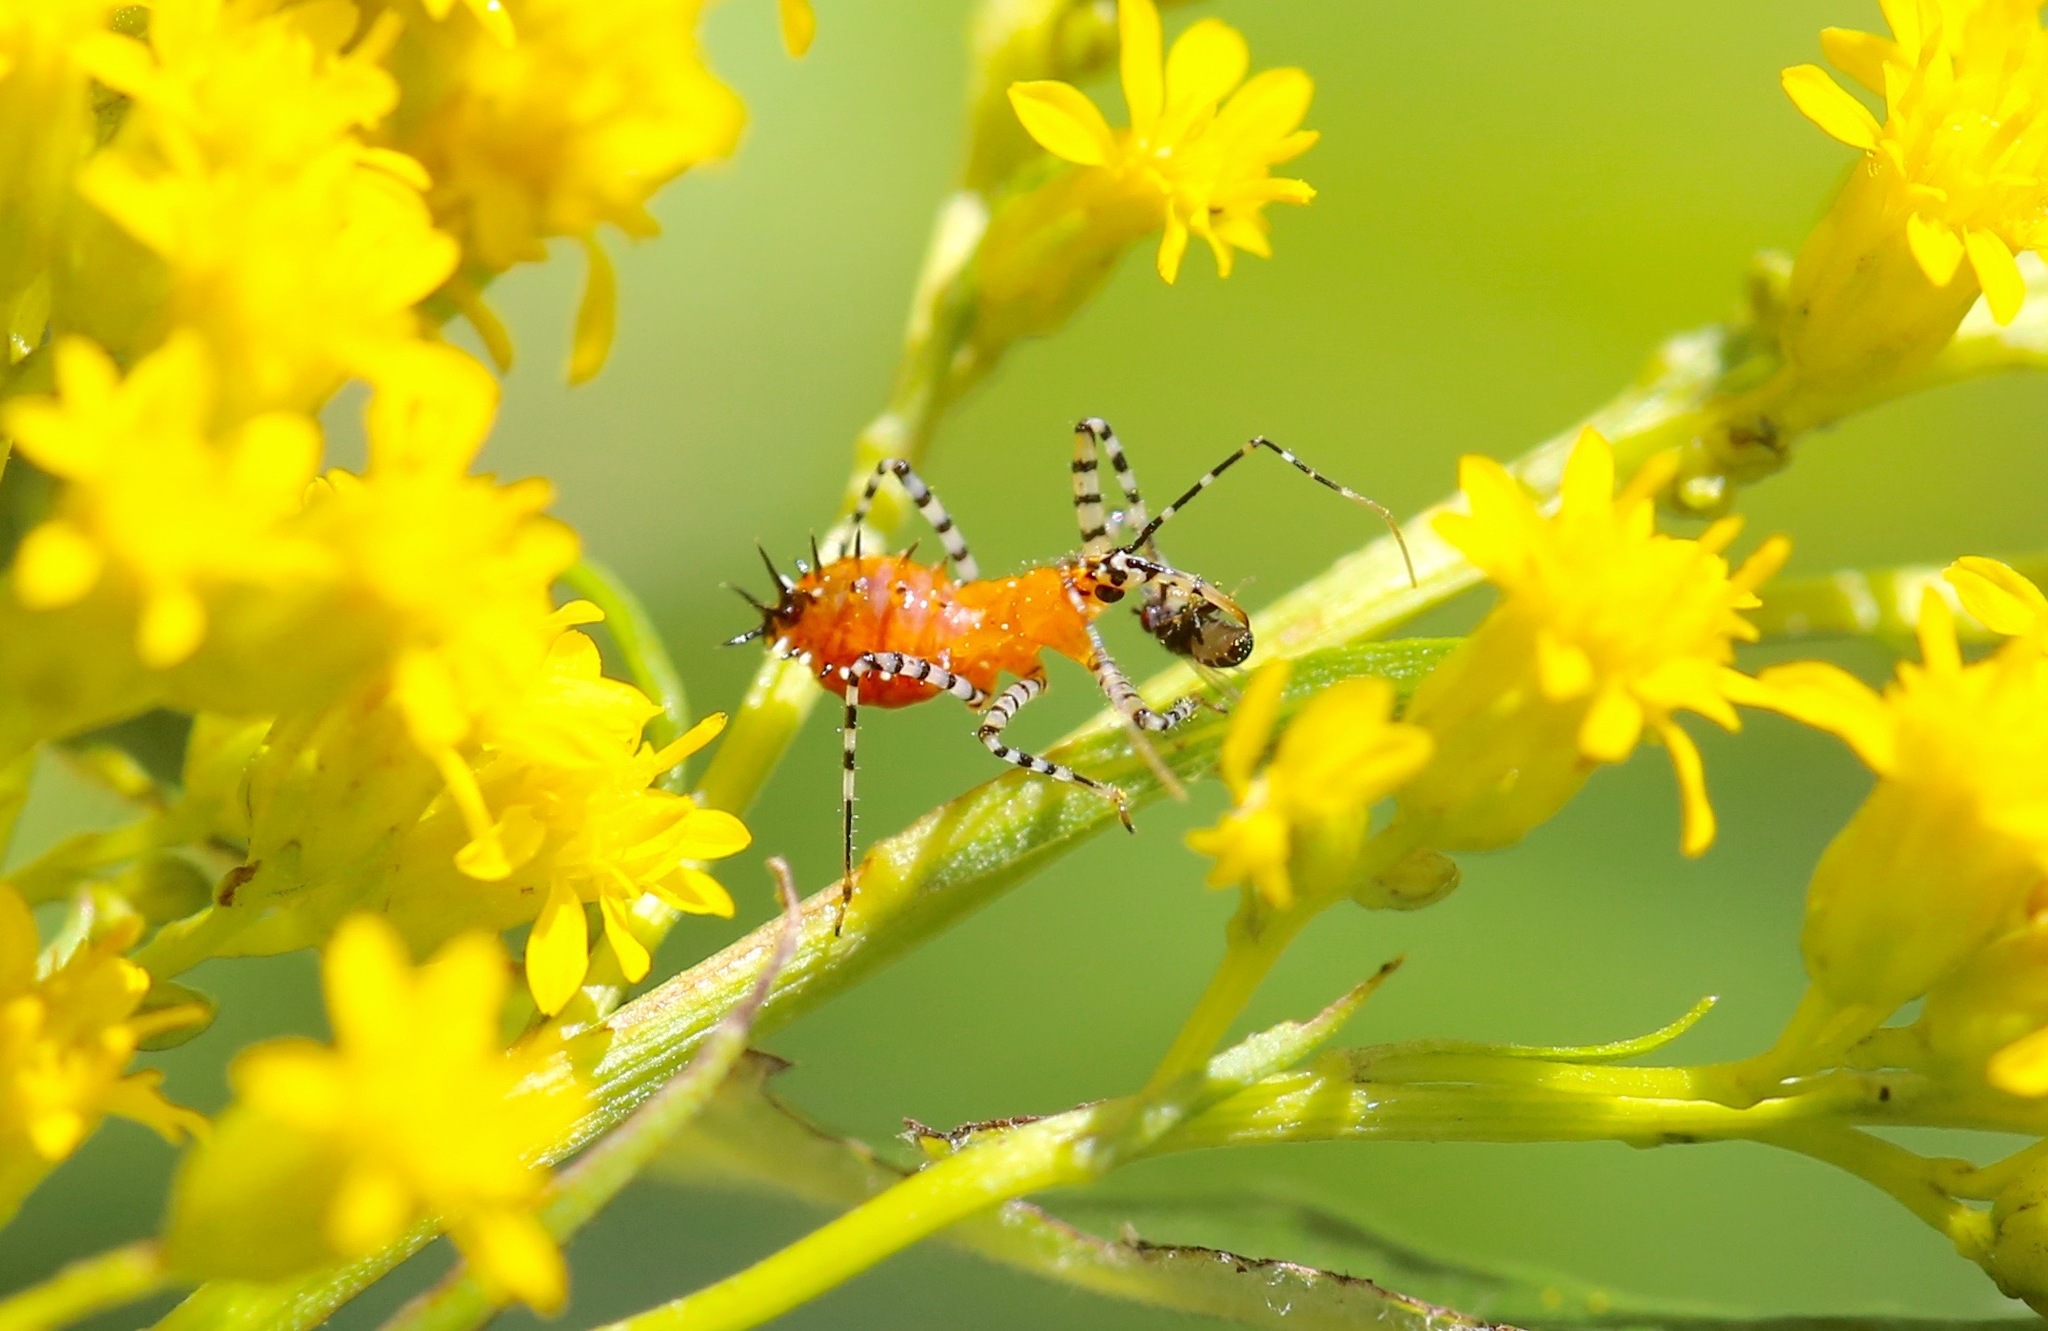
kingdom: Animalia
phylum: Arthropoda
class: Insecta
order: Hemiptera
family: Reduviidae
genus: Pselliopus
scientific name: Pselliopus cinctus
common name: Ringed assassin bug
